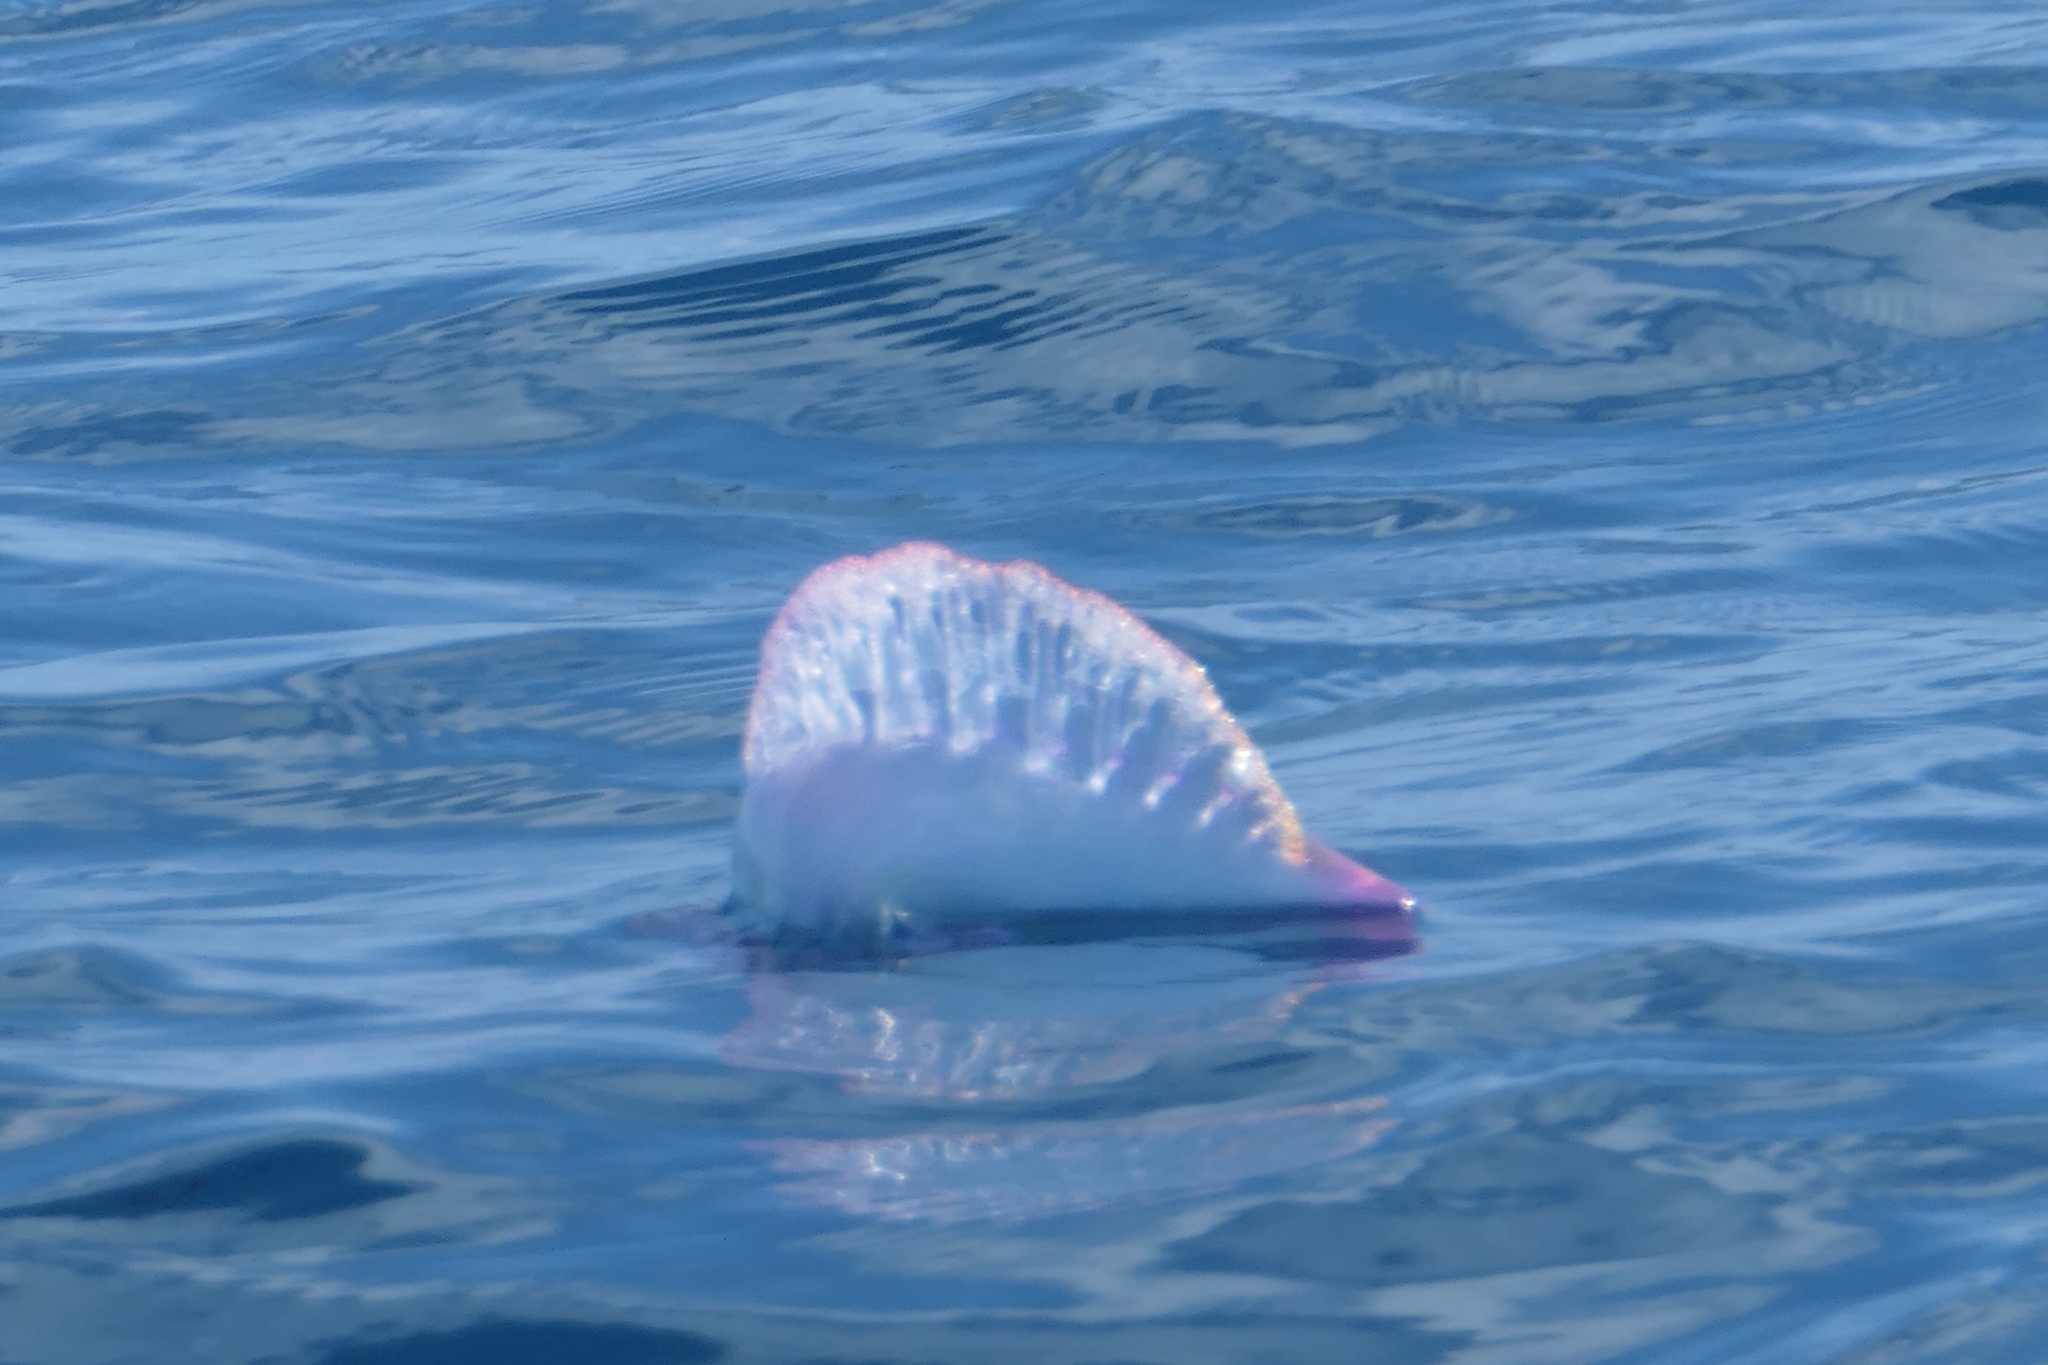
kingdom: Animalia
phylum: Cnidaria
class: Hydrozoa
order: Siphonophorae
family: Physaliidae
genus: Physalia
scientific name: Physalia physalis
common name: Portuguese man-of-war
